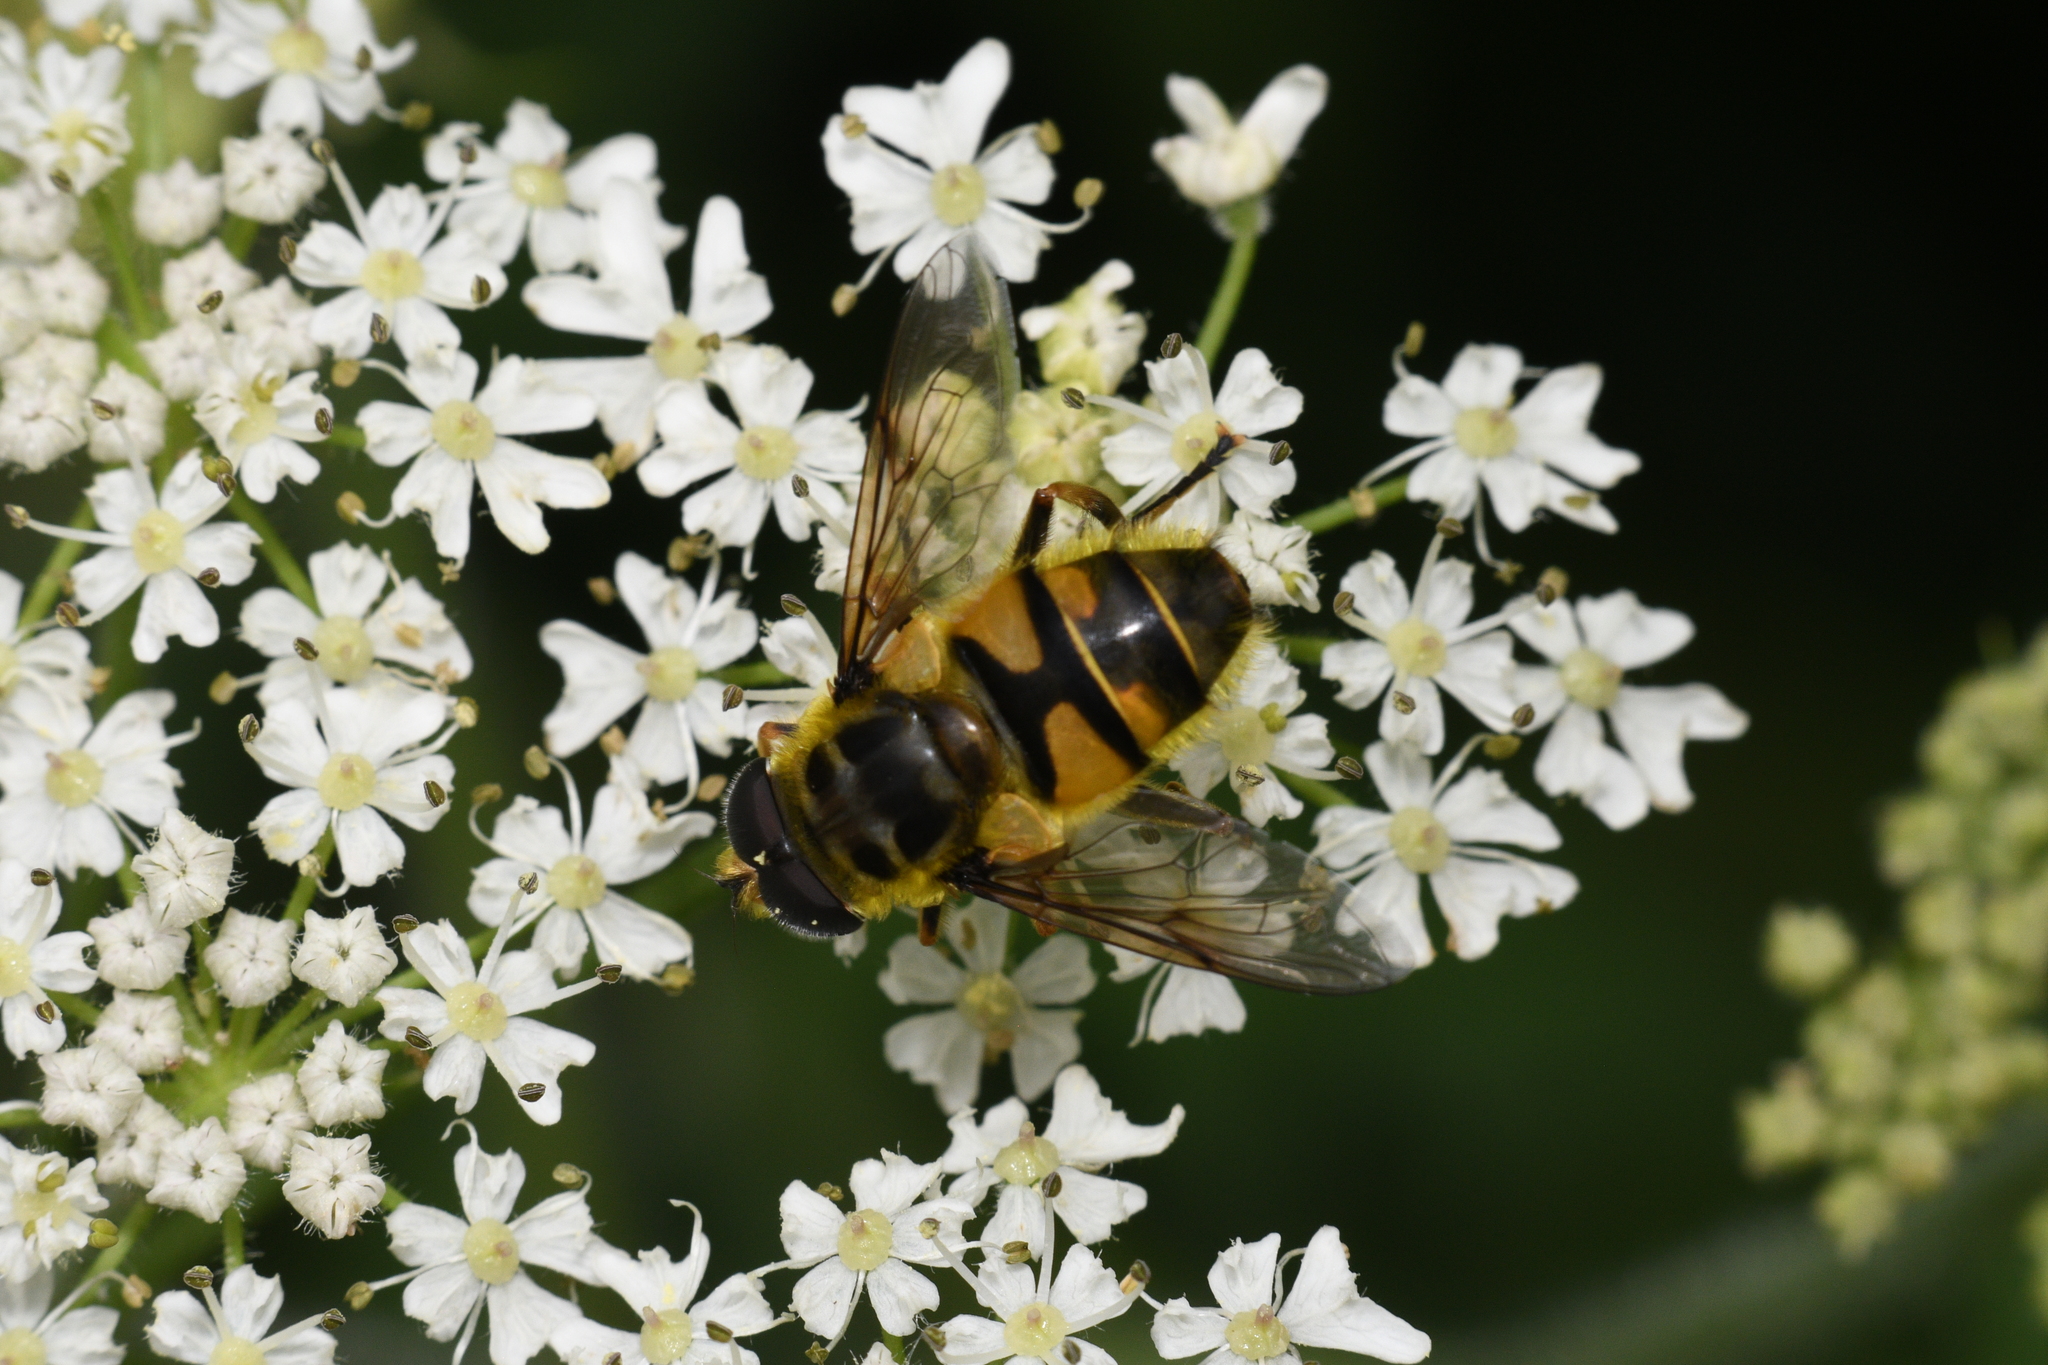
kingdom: Animalia
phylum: Arthropoda
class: Insecta
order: Diptera
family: Syrphidae
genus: Myathropa
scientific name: Myathropa florea
